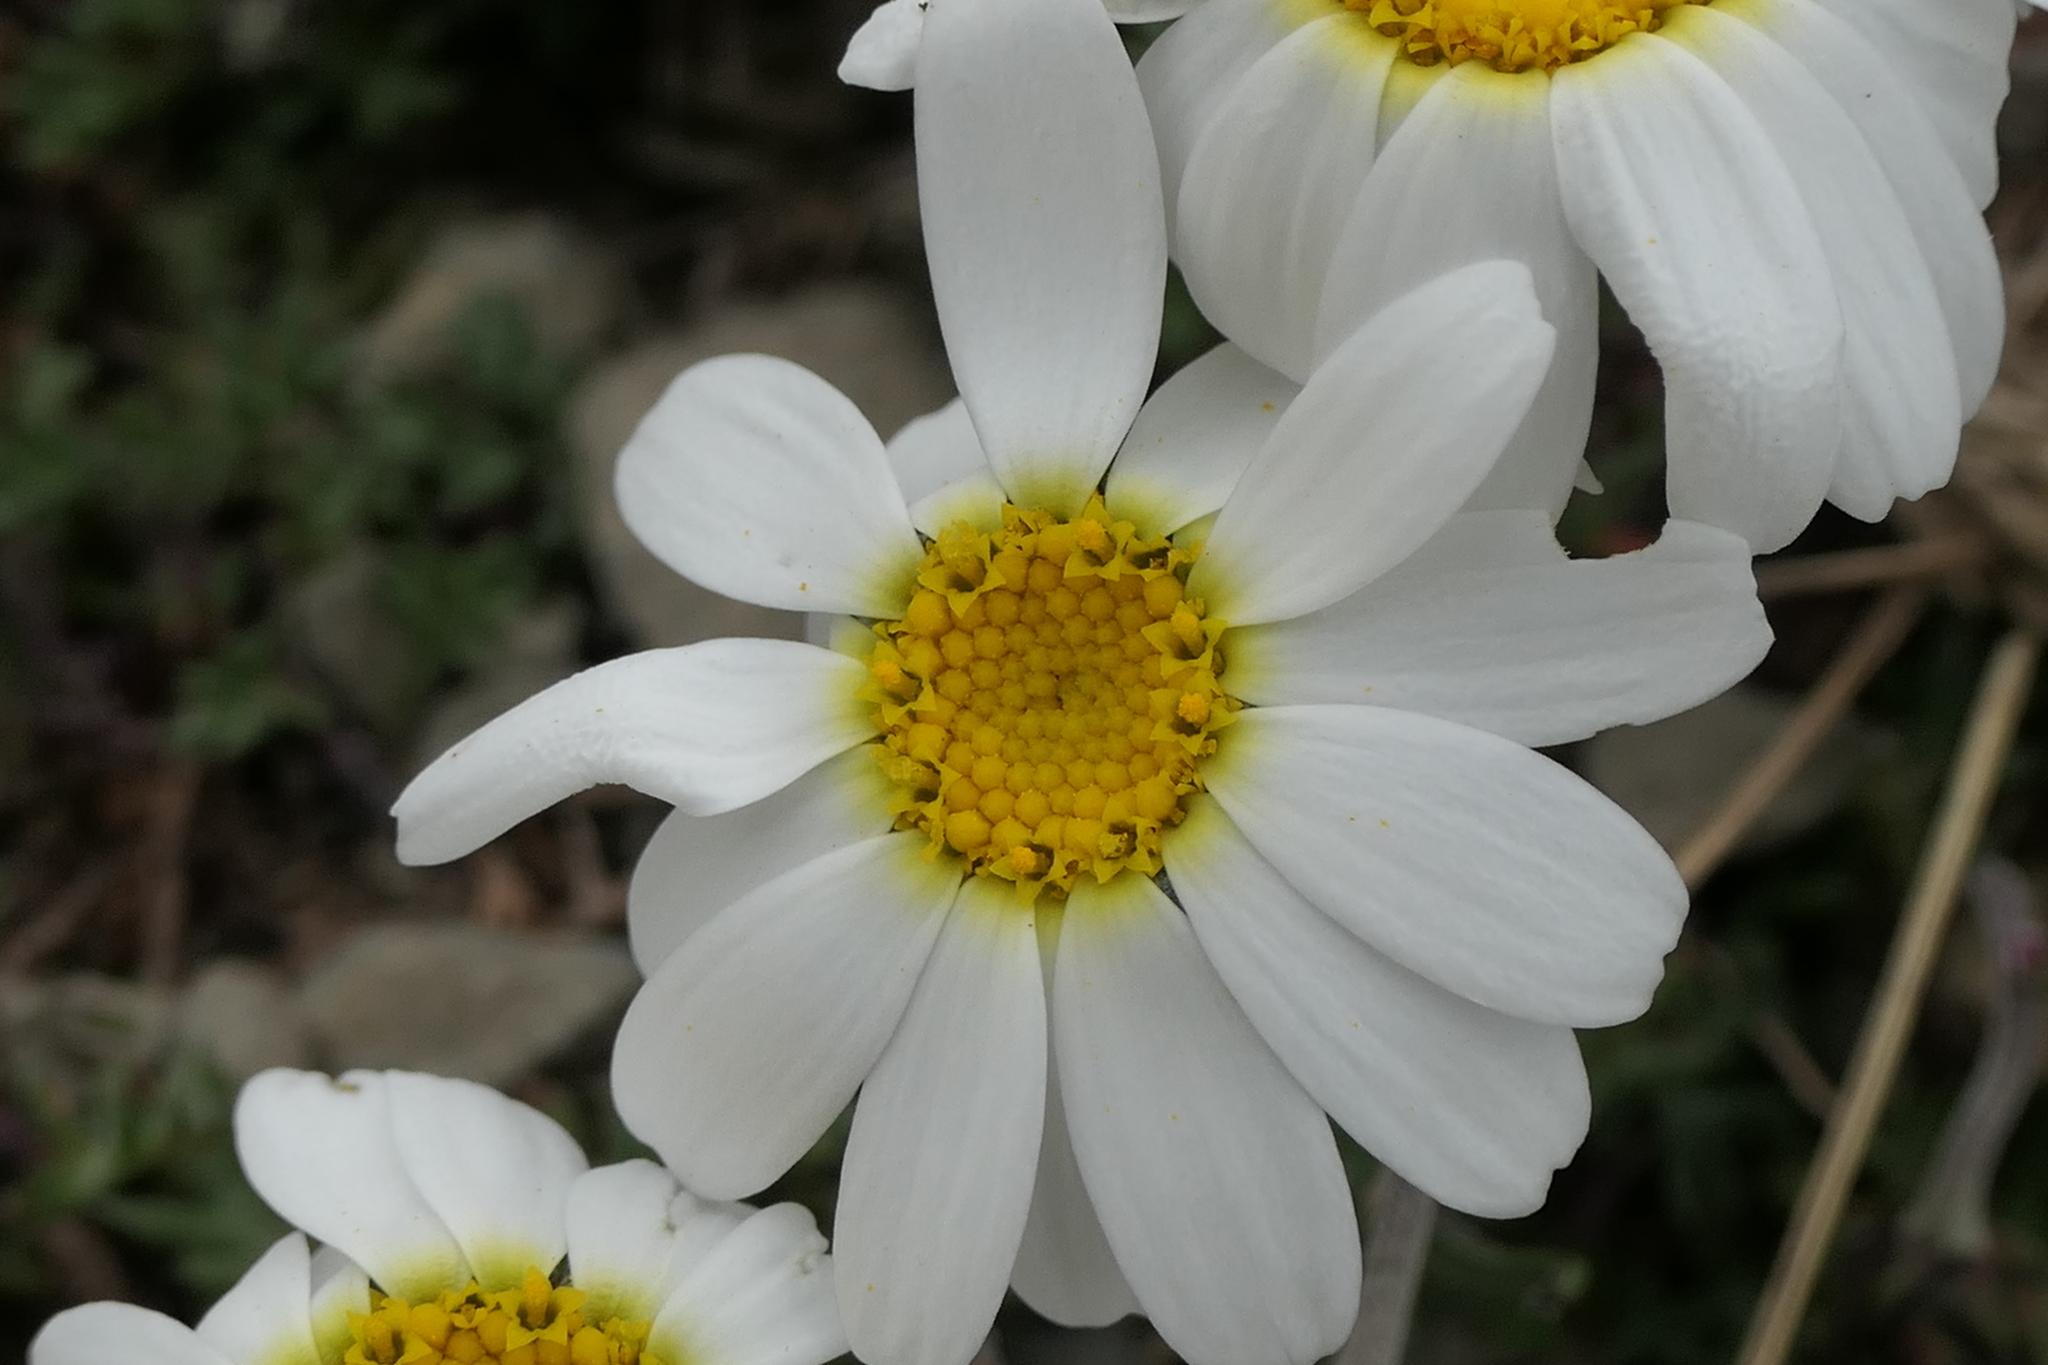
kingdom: Plantae
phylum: Tracheophyta
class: Magnoliopsida
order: Asterales
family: Asteraceae
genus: Leucanthemopsis
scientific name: Leucanthemopsis alpina
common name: Alpine moon daisy
